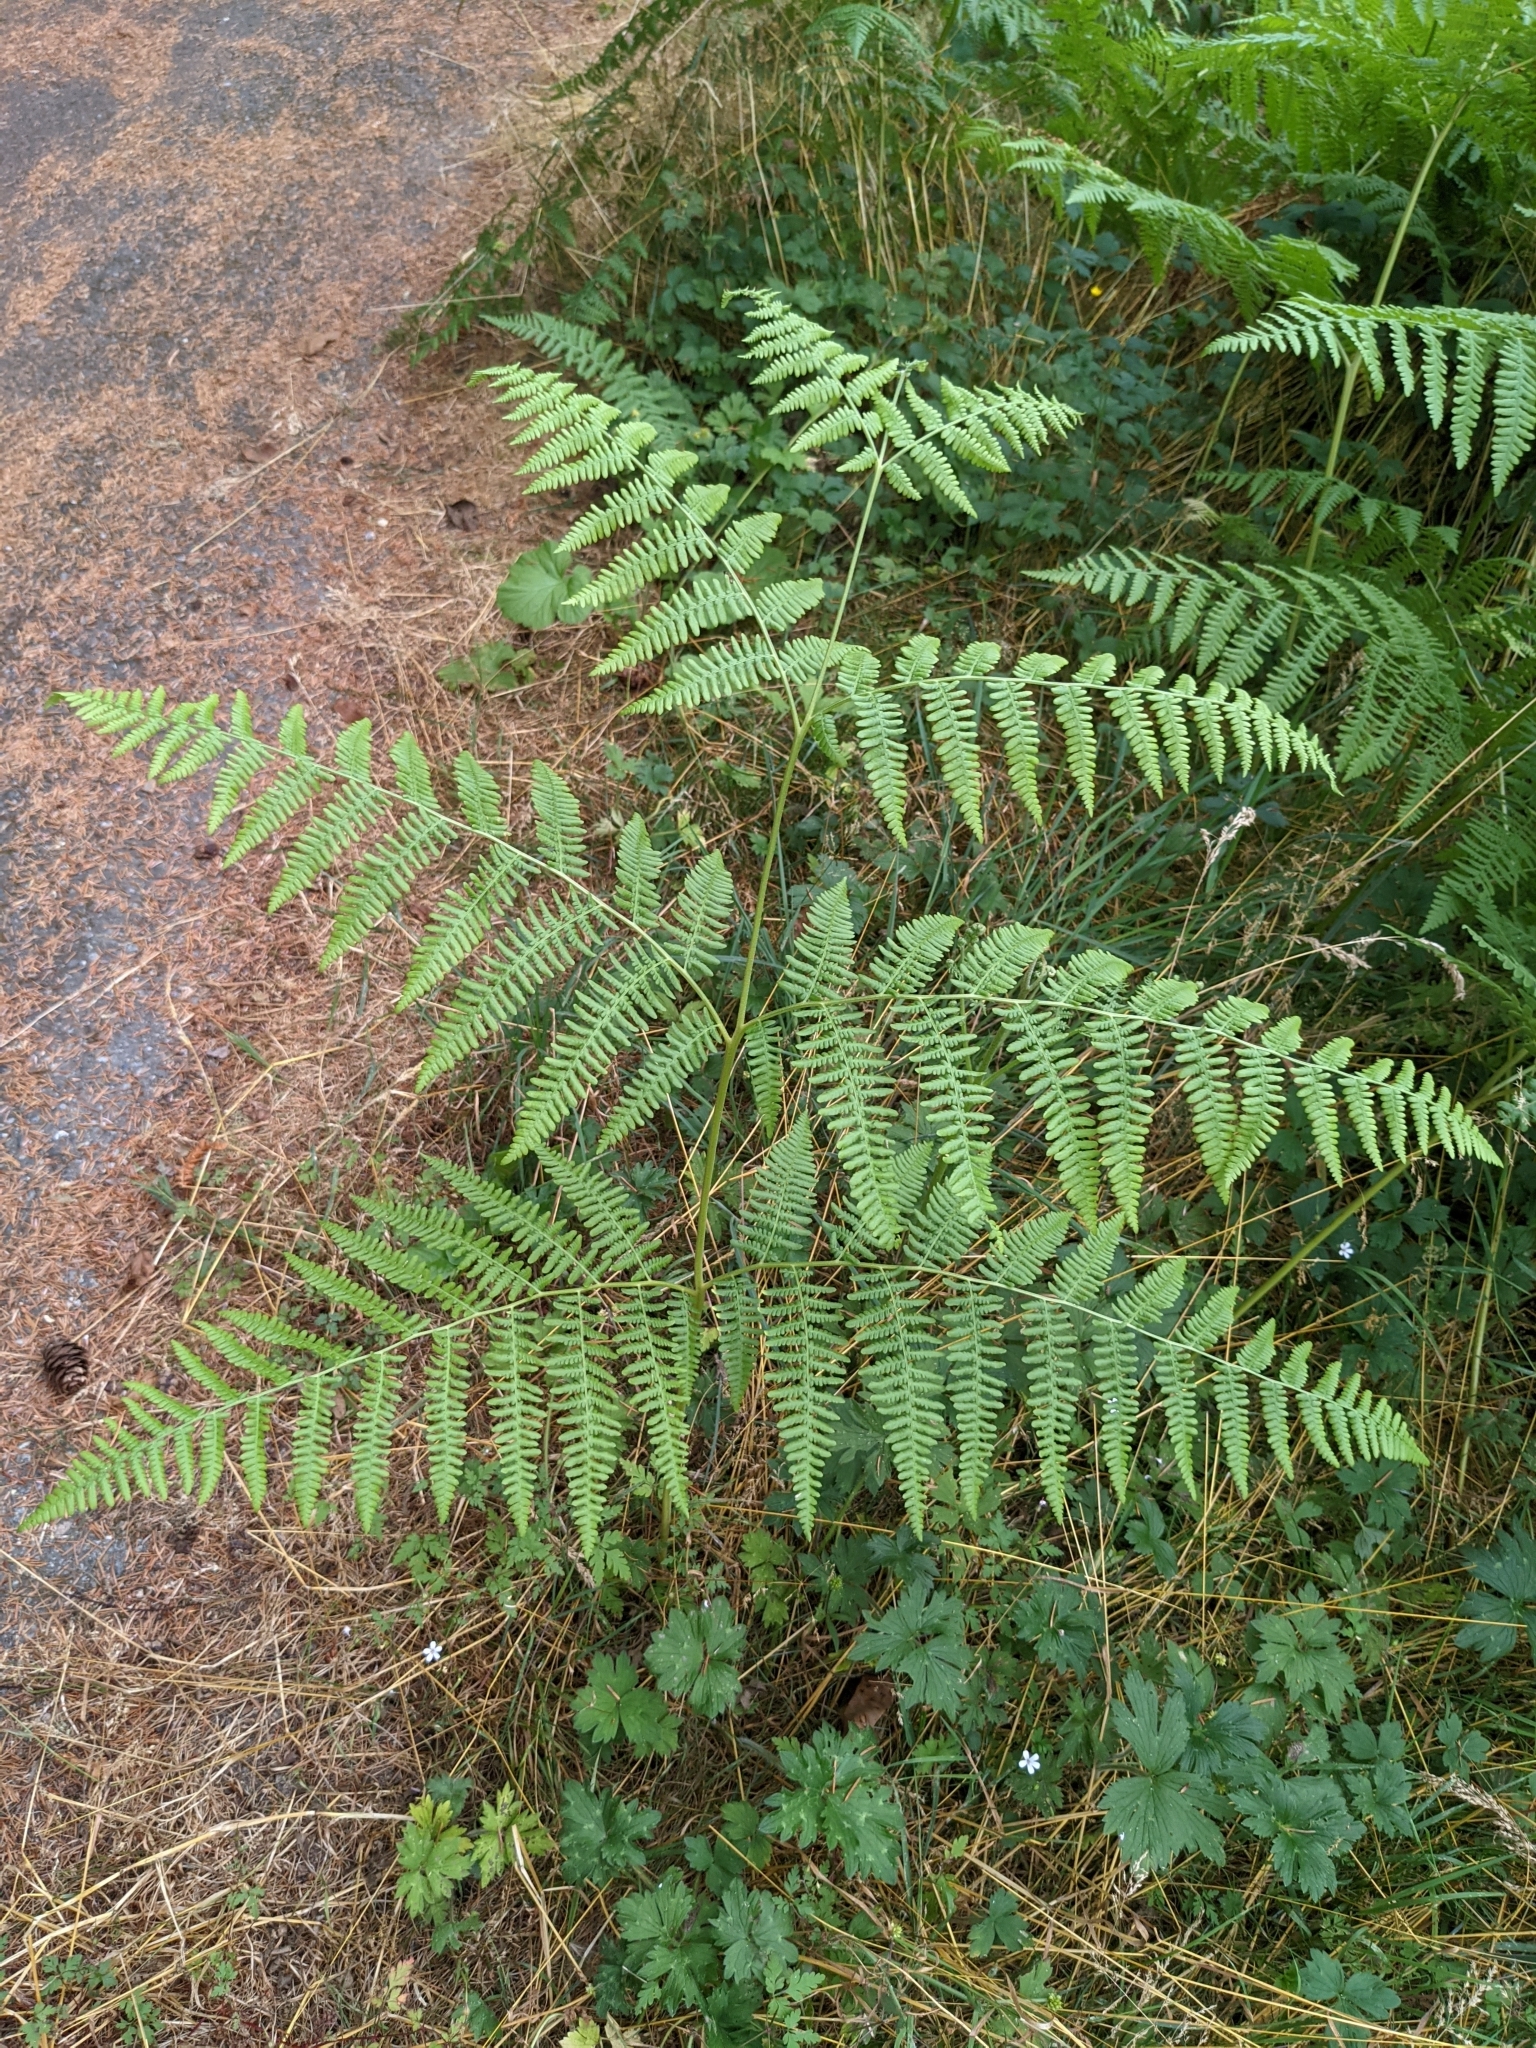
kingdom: Plantae
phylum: Tracheophyta
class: Polypodiopsida
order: Polypodiales
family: Dennstaedtiaceae
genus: Pteridium
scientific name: Pteridium aquilinum
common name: Bracken
